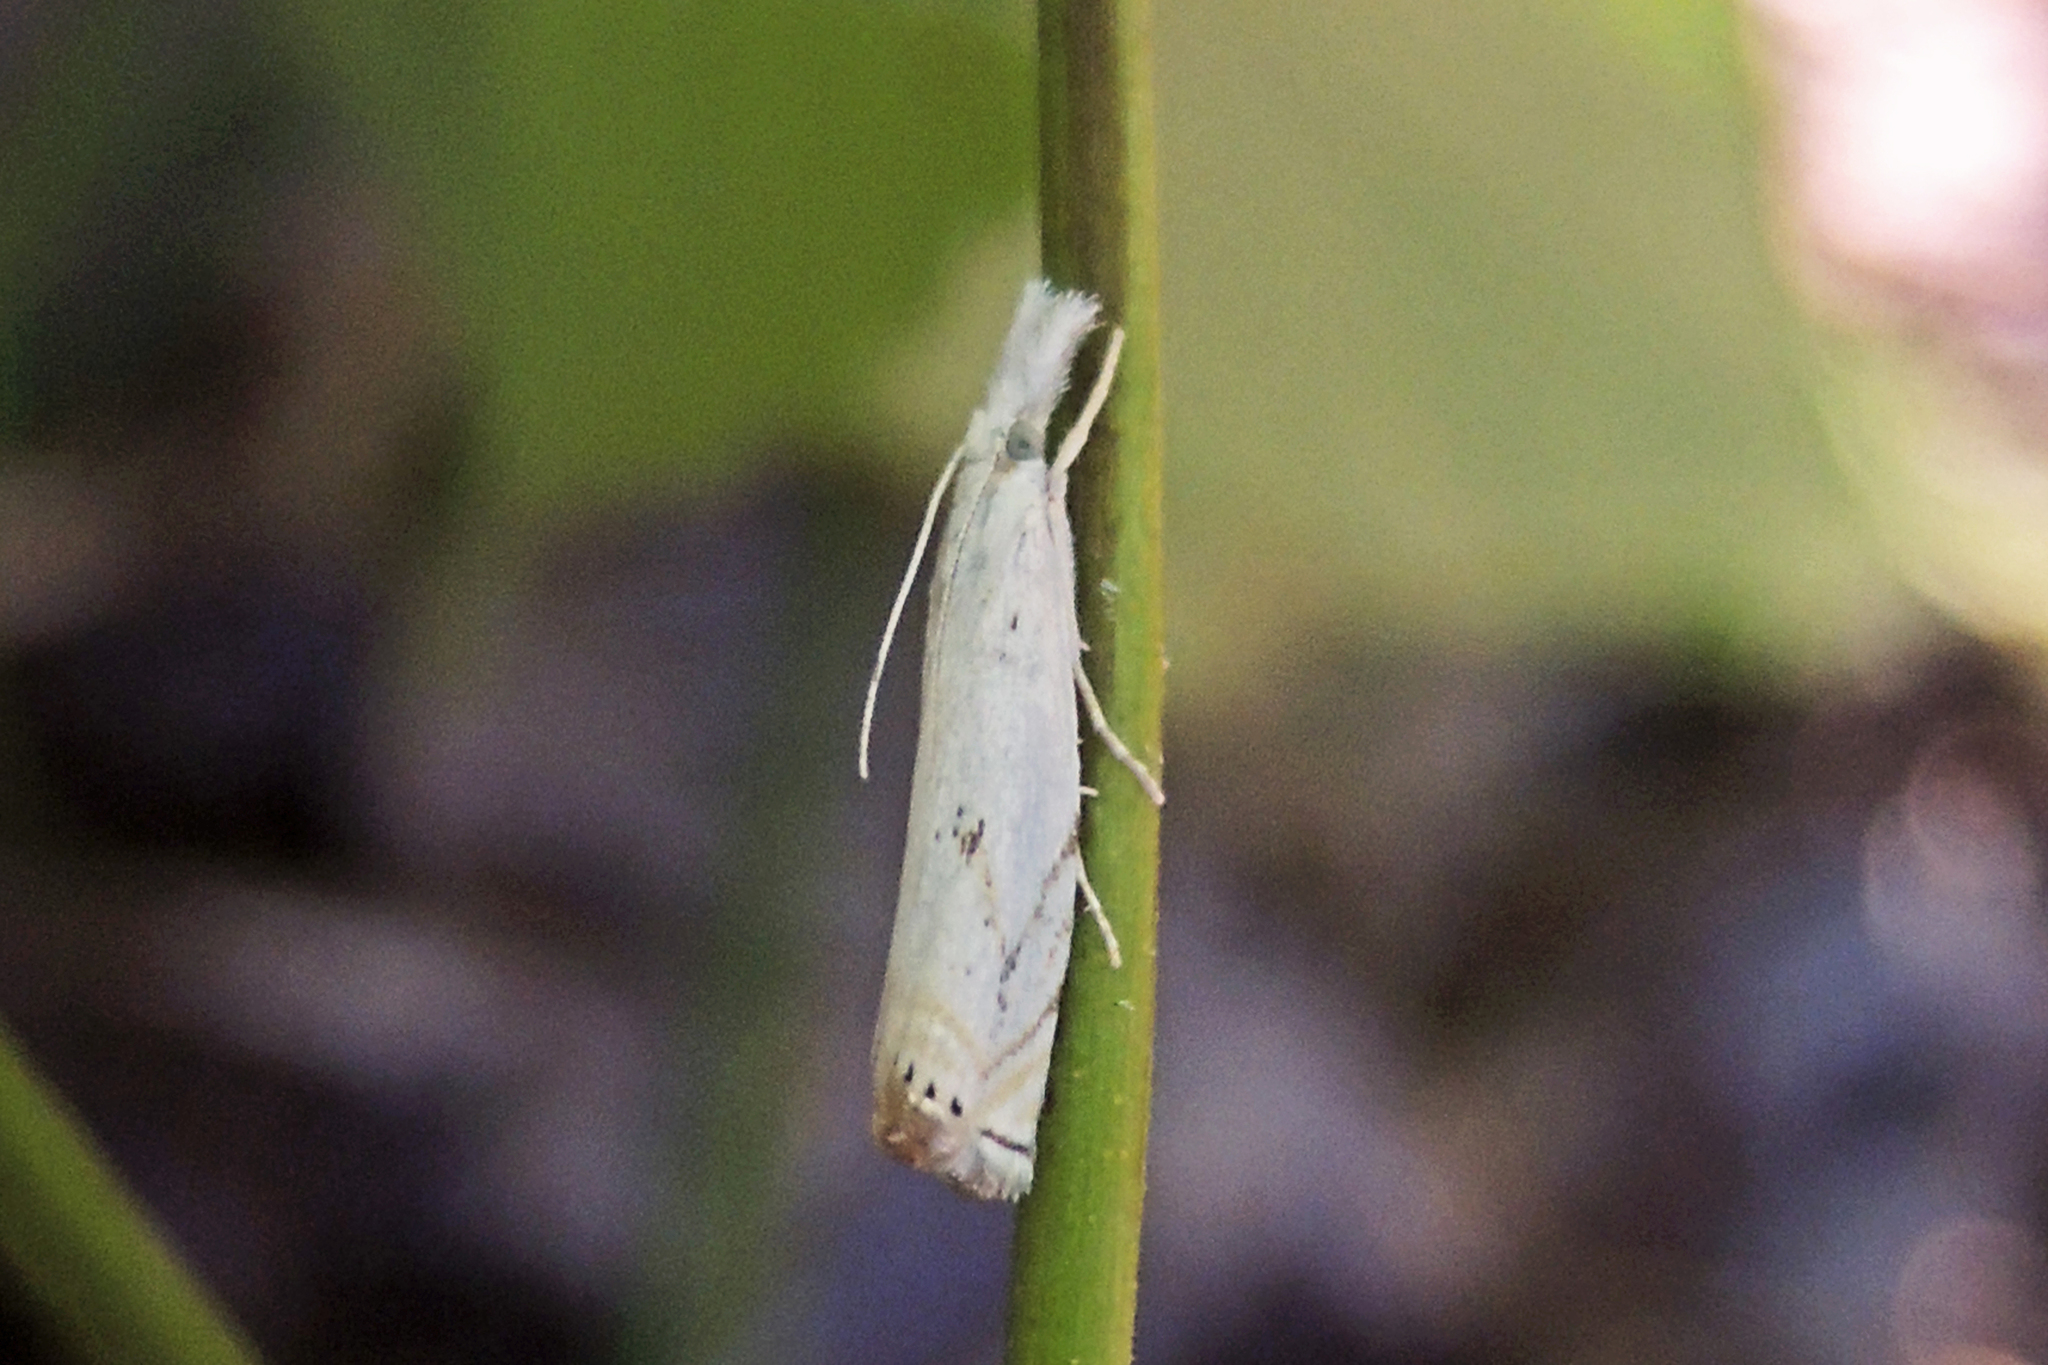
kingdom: Animalia
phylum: Arthropoda
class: Insecta
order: Lepidoptera
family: Crambidae
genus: Crambus
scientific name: Crambus albellus
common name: Small white grass-veneer
